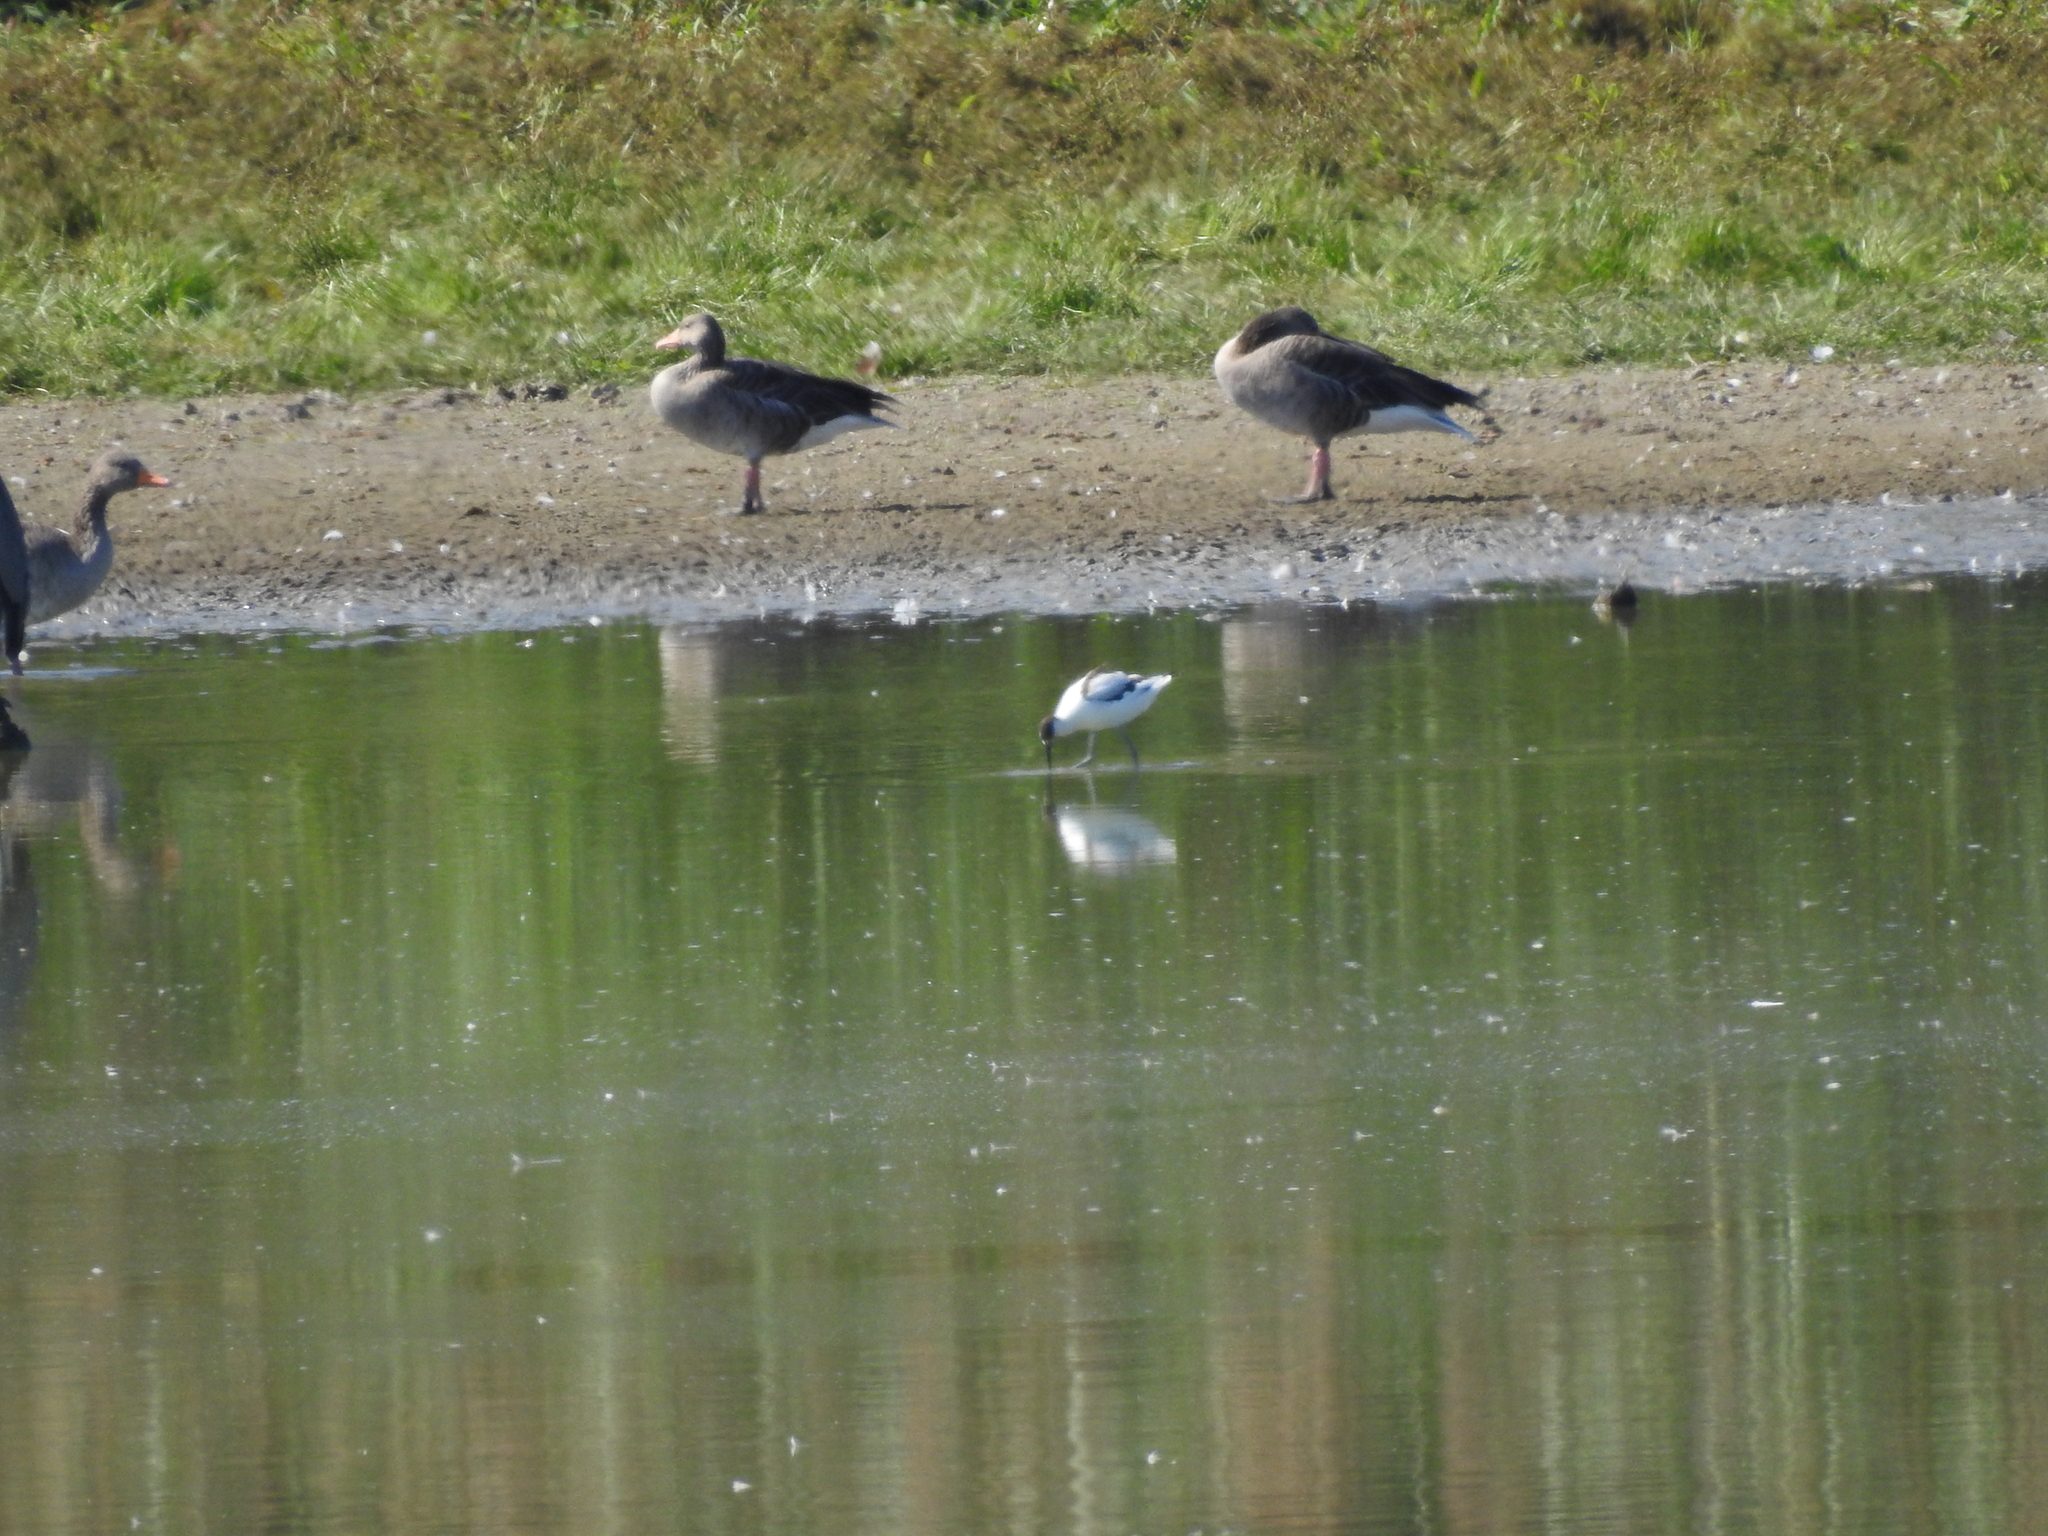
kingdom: Animalia
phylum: Chordata
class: Aves
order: Charadriiformes
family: Recurvirostridae
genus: Recurvirostra
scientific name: Recurvirostra avosetta
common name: Pied avocet
